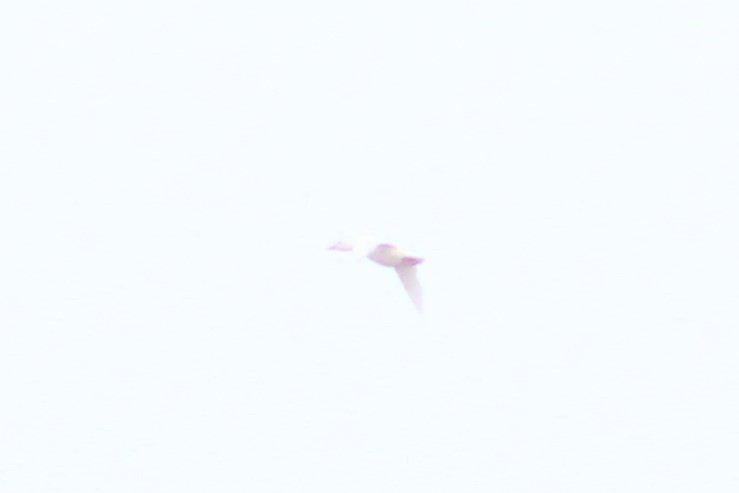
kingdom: Animalia
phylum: Chordata
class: Aves
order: Anseriformes
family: Anatidae
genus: Anas
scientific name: Anas platyrhynchos
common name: Mallard
